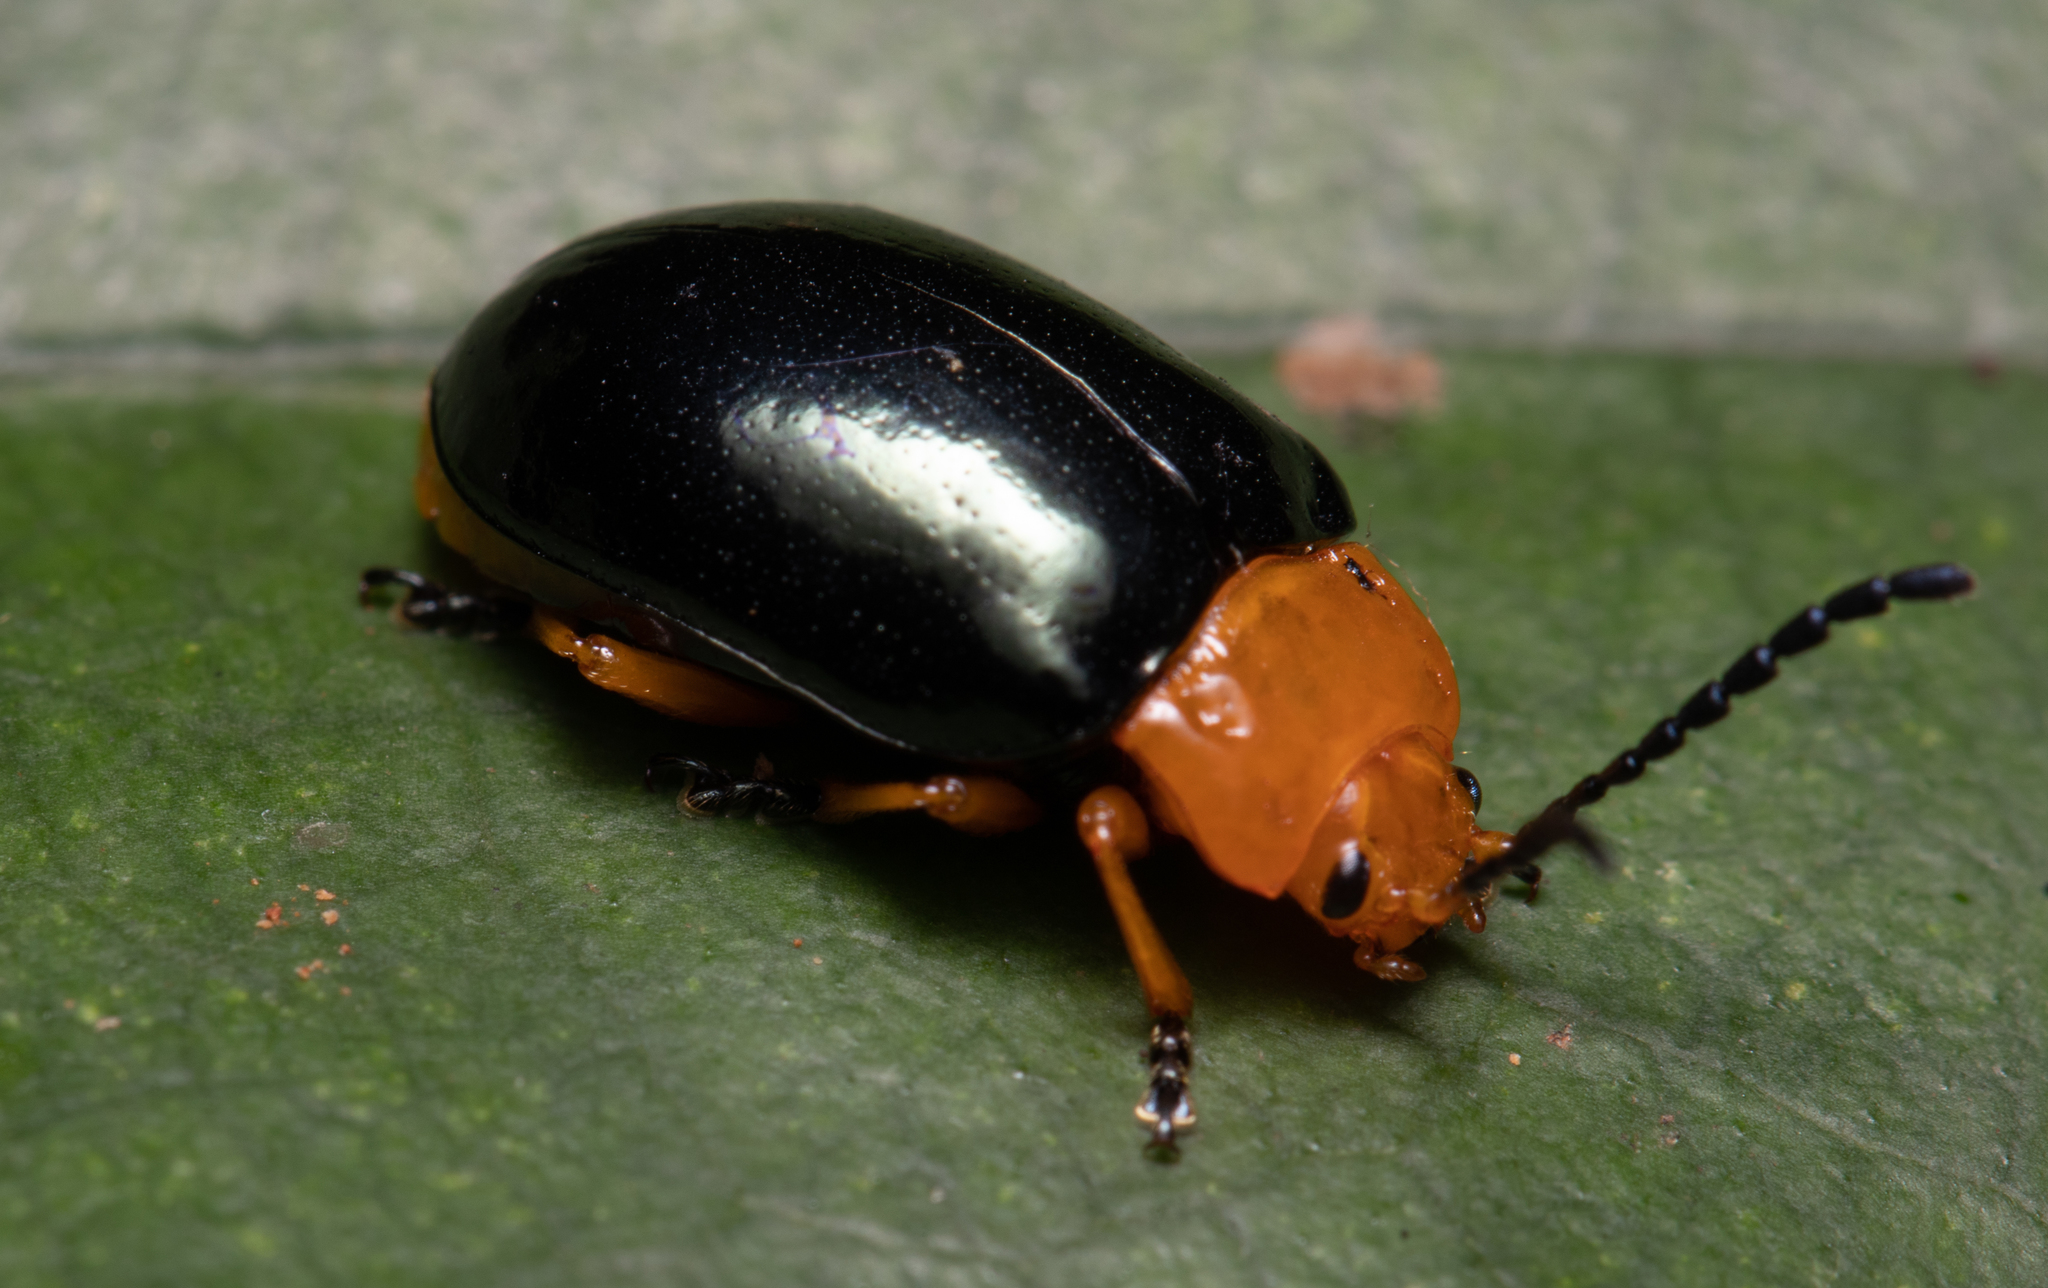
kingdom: Animalia
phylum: Arthropoda
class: Insecta
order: Coleoptera
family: Chrysomelidae
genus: Lamprolina
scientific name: Lamprolina
